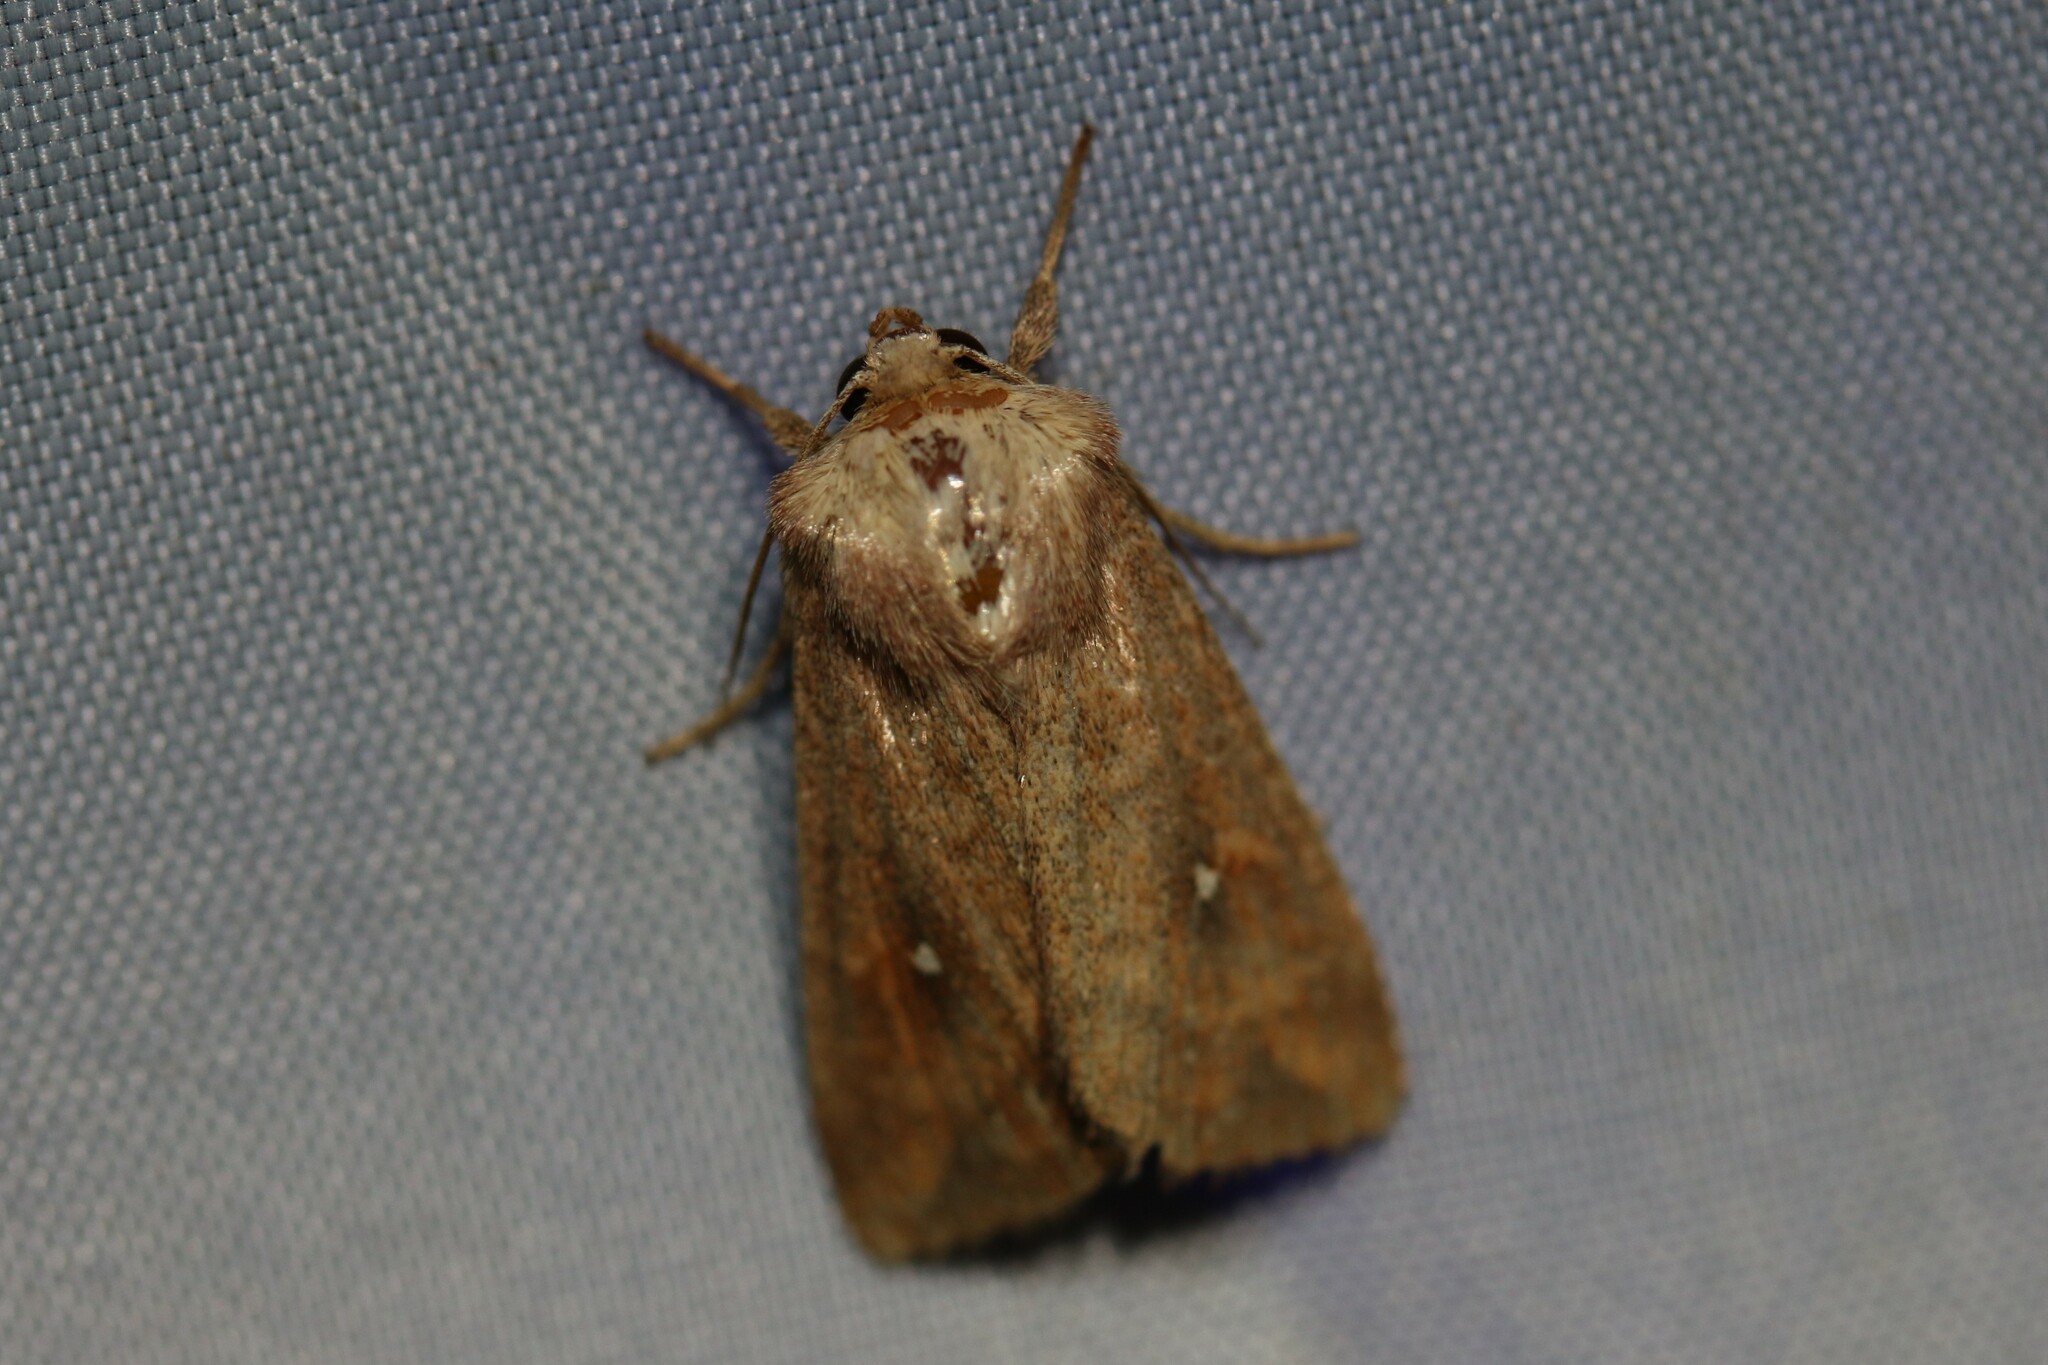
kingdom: Animalia
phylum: Arthropoda
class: Insecta
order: Lepidoptera
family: Noctuidae
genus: Mythimna
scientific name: Mythimna albipuncta
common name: White-point
